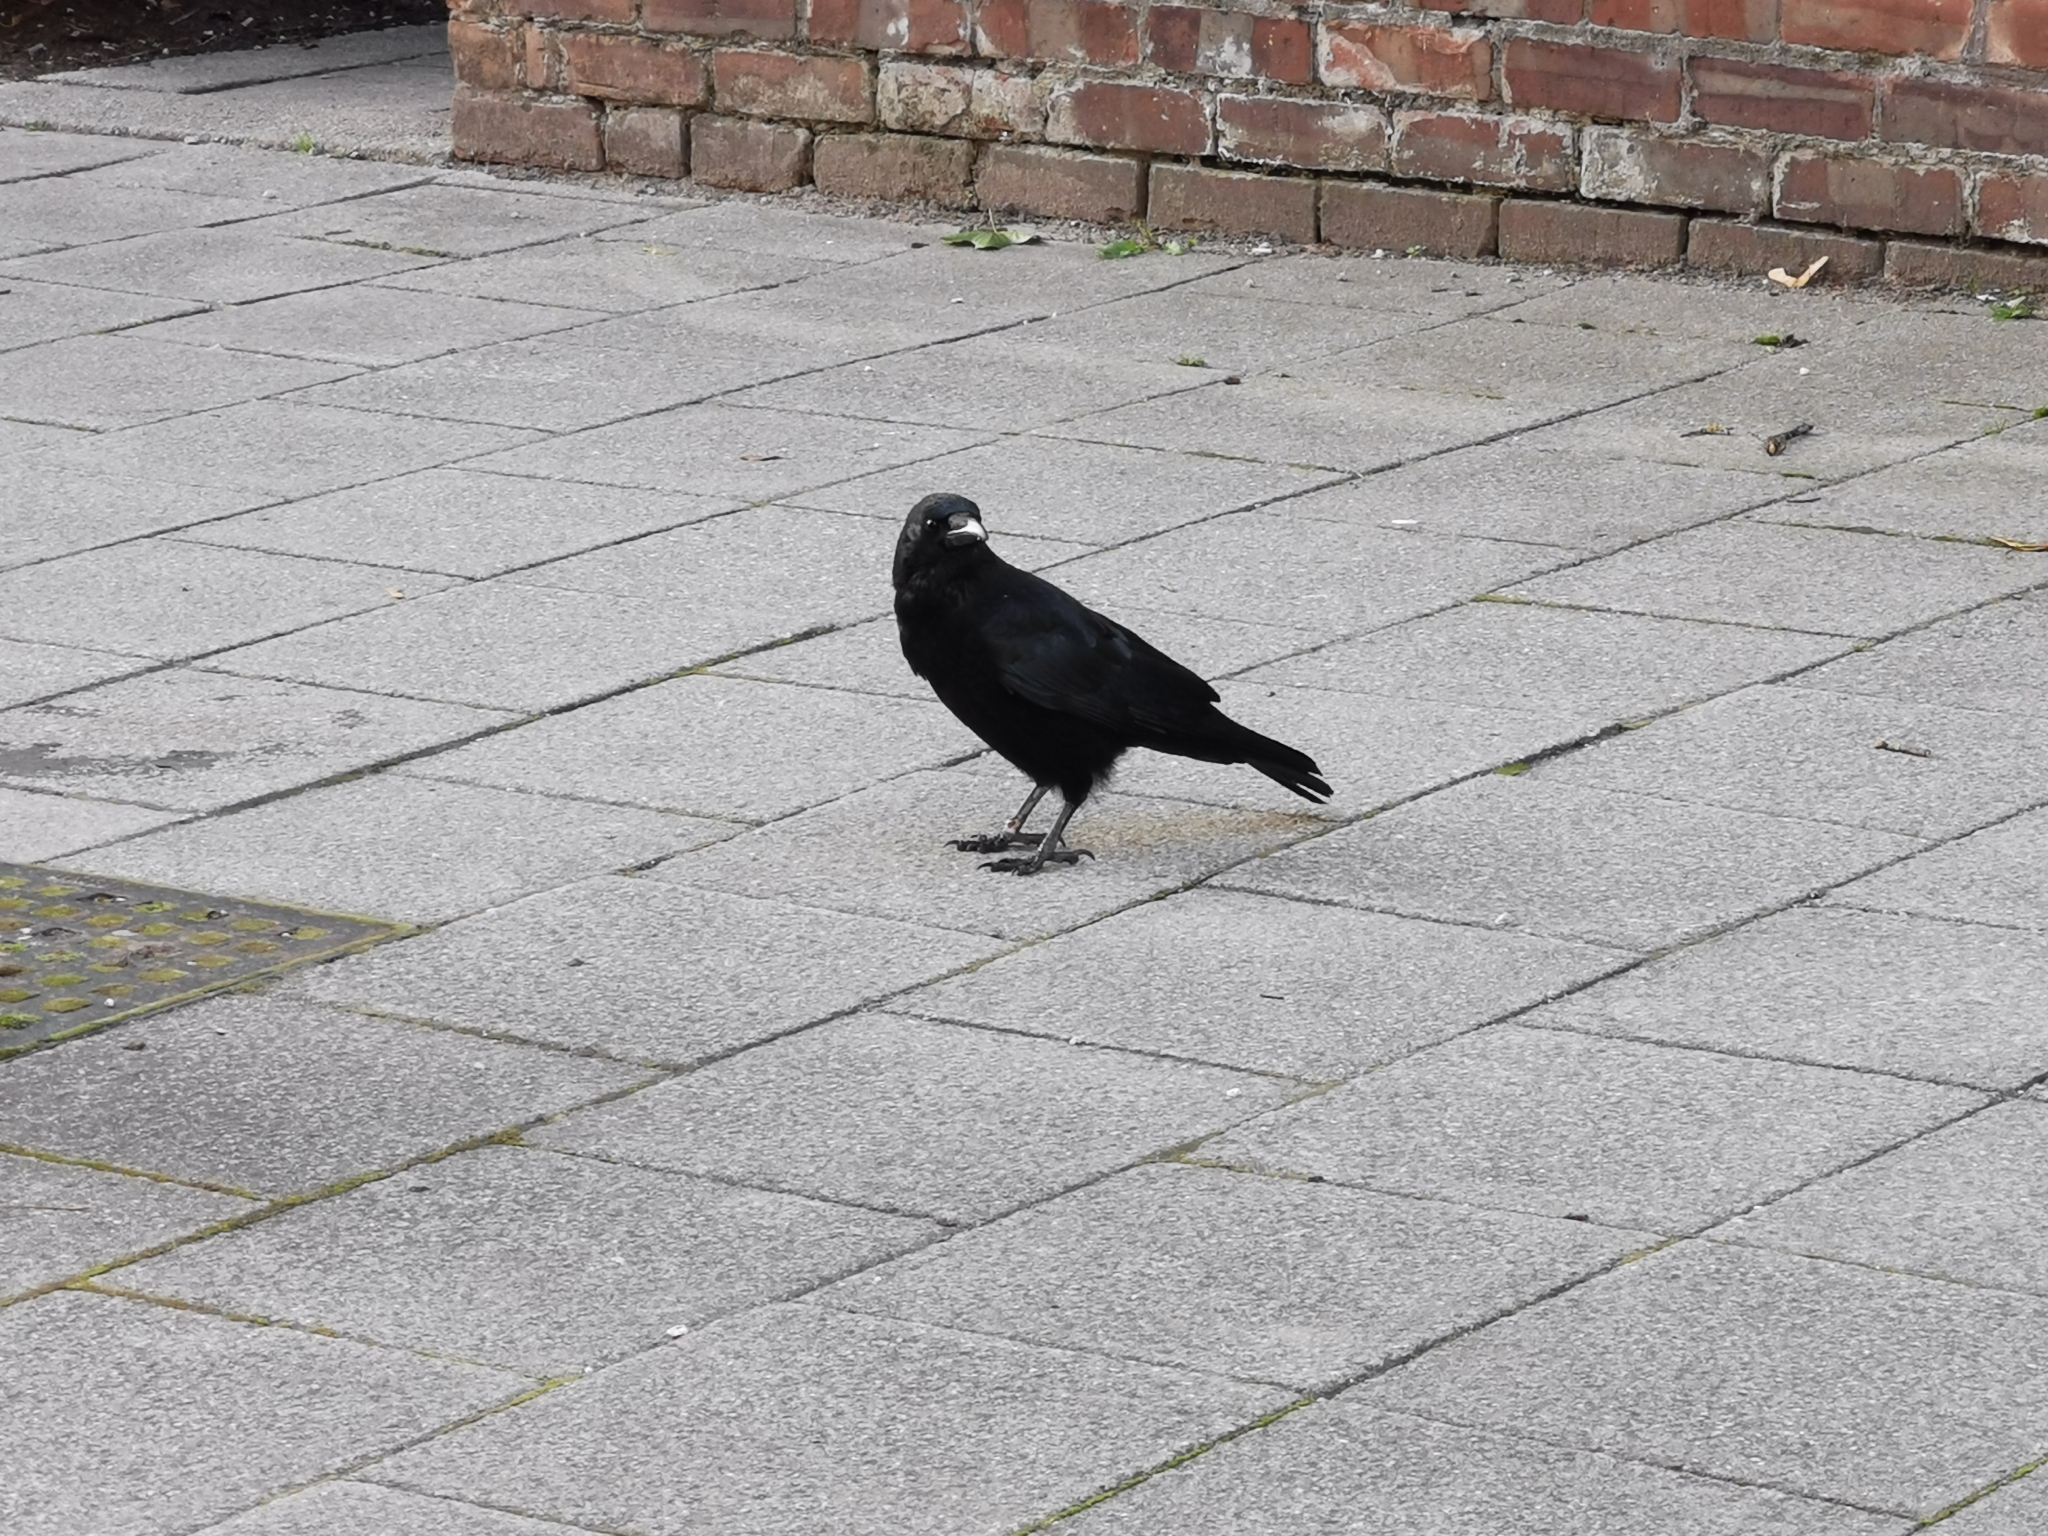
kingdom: Animalia
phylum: Chordata
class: Aves
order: Passeriformes
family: Corvidae
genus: Corvus
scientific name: Corvus corone
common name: Carrion crow
